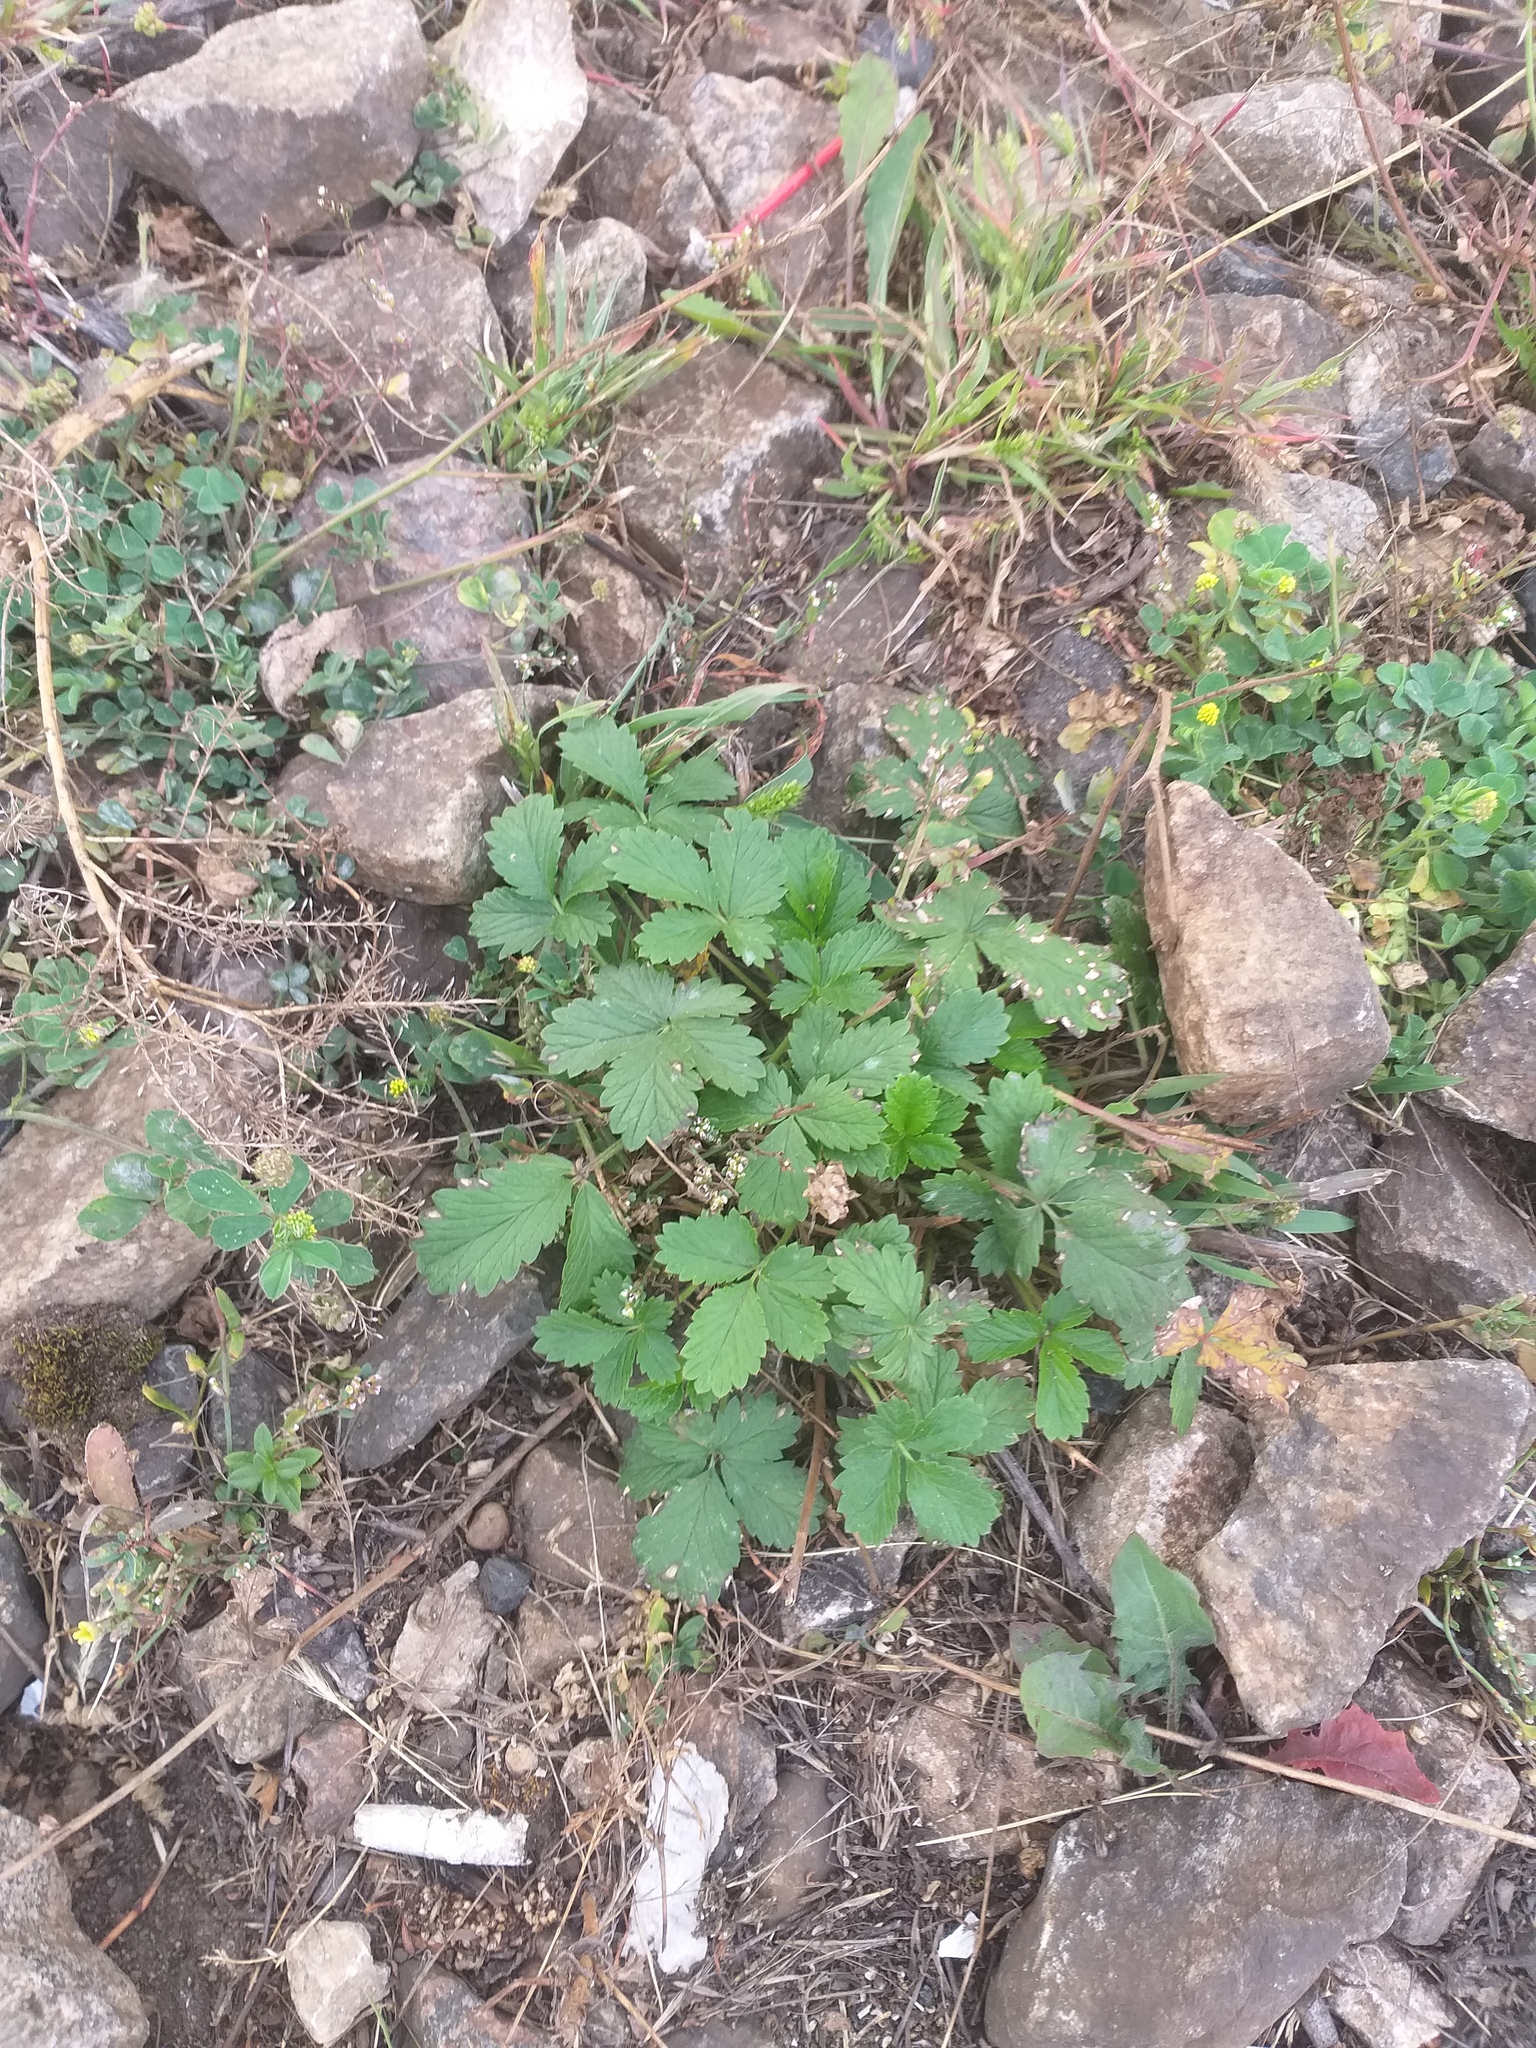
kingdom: Plantae
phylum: Tracheophyta
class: Magnoliopsida
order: Rosales
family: Rosaceae
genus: Potentilla
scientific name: Potentilla intermedia
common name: Downy cinquefoil
